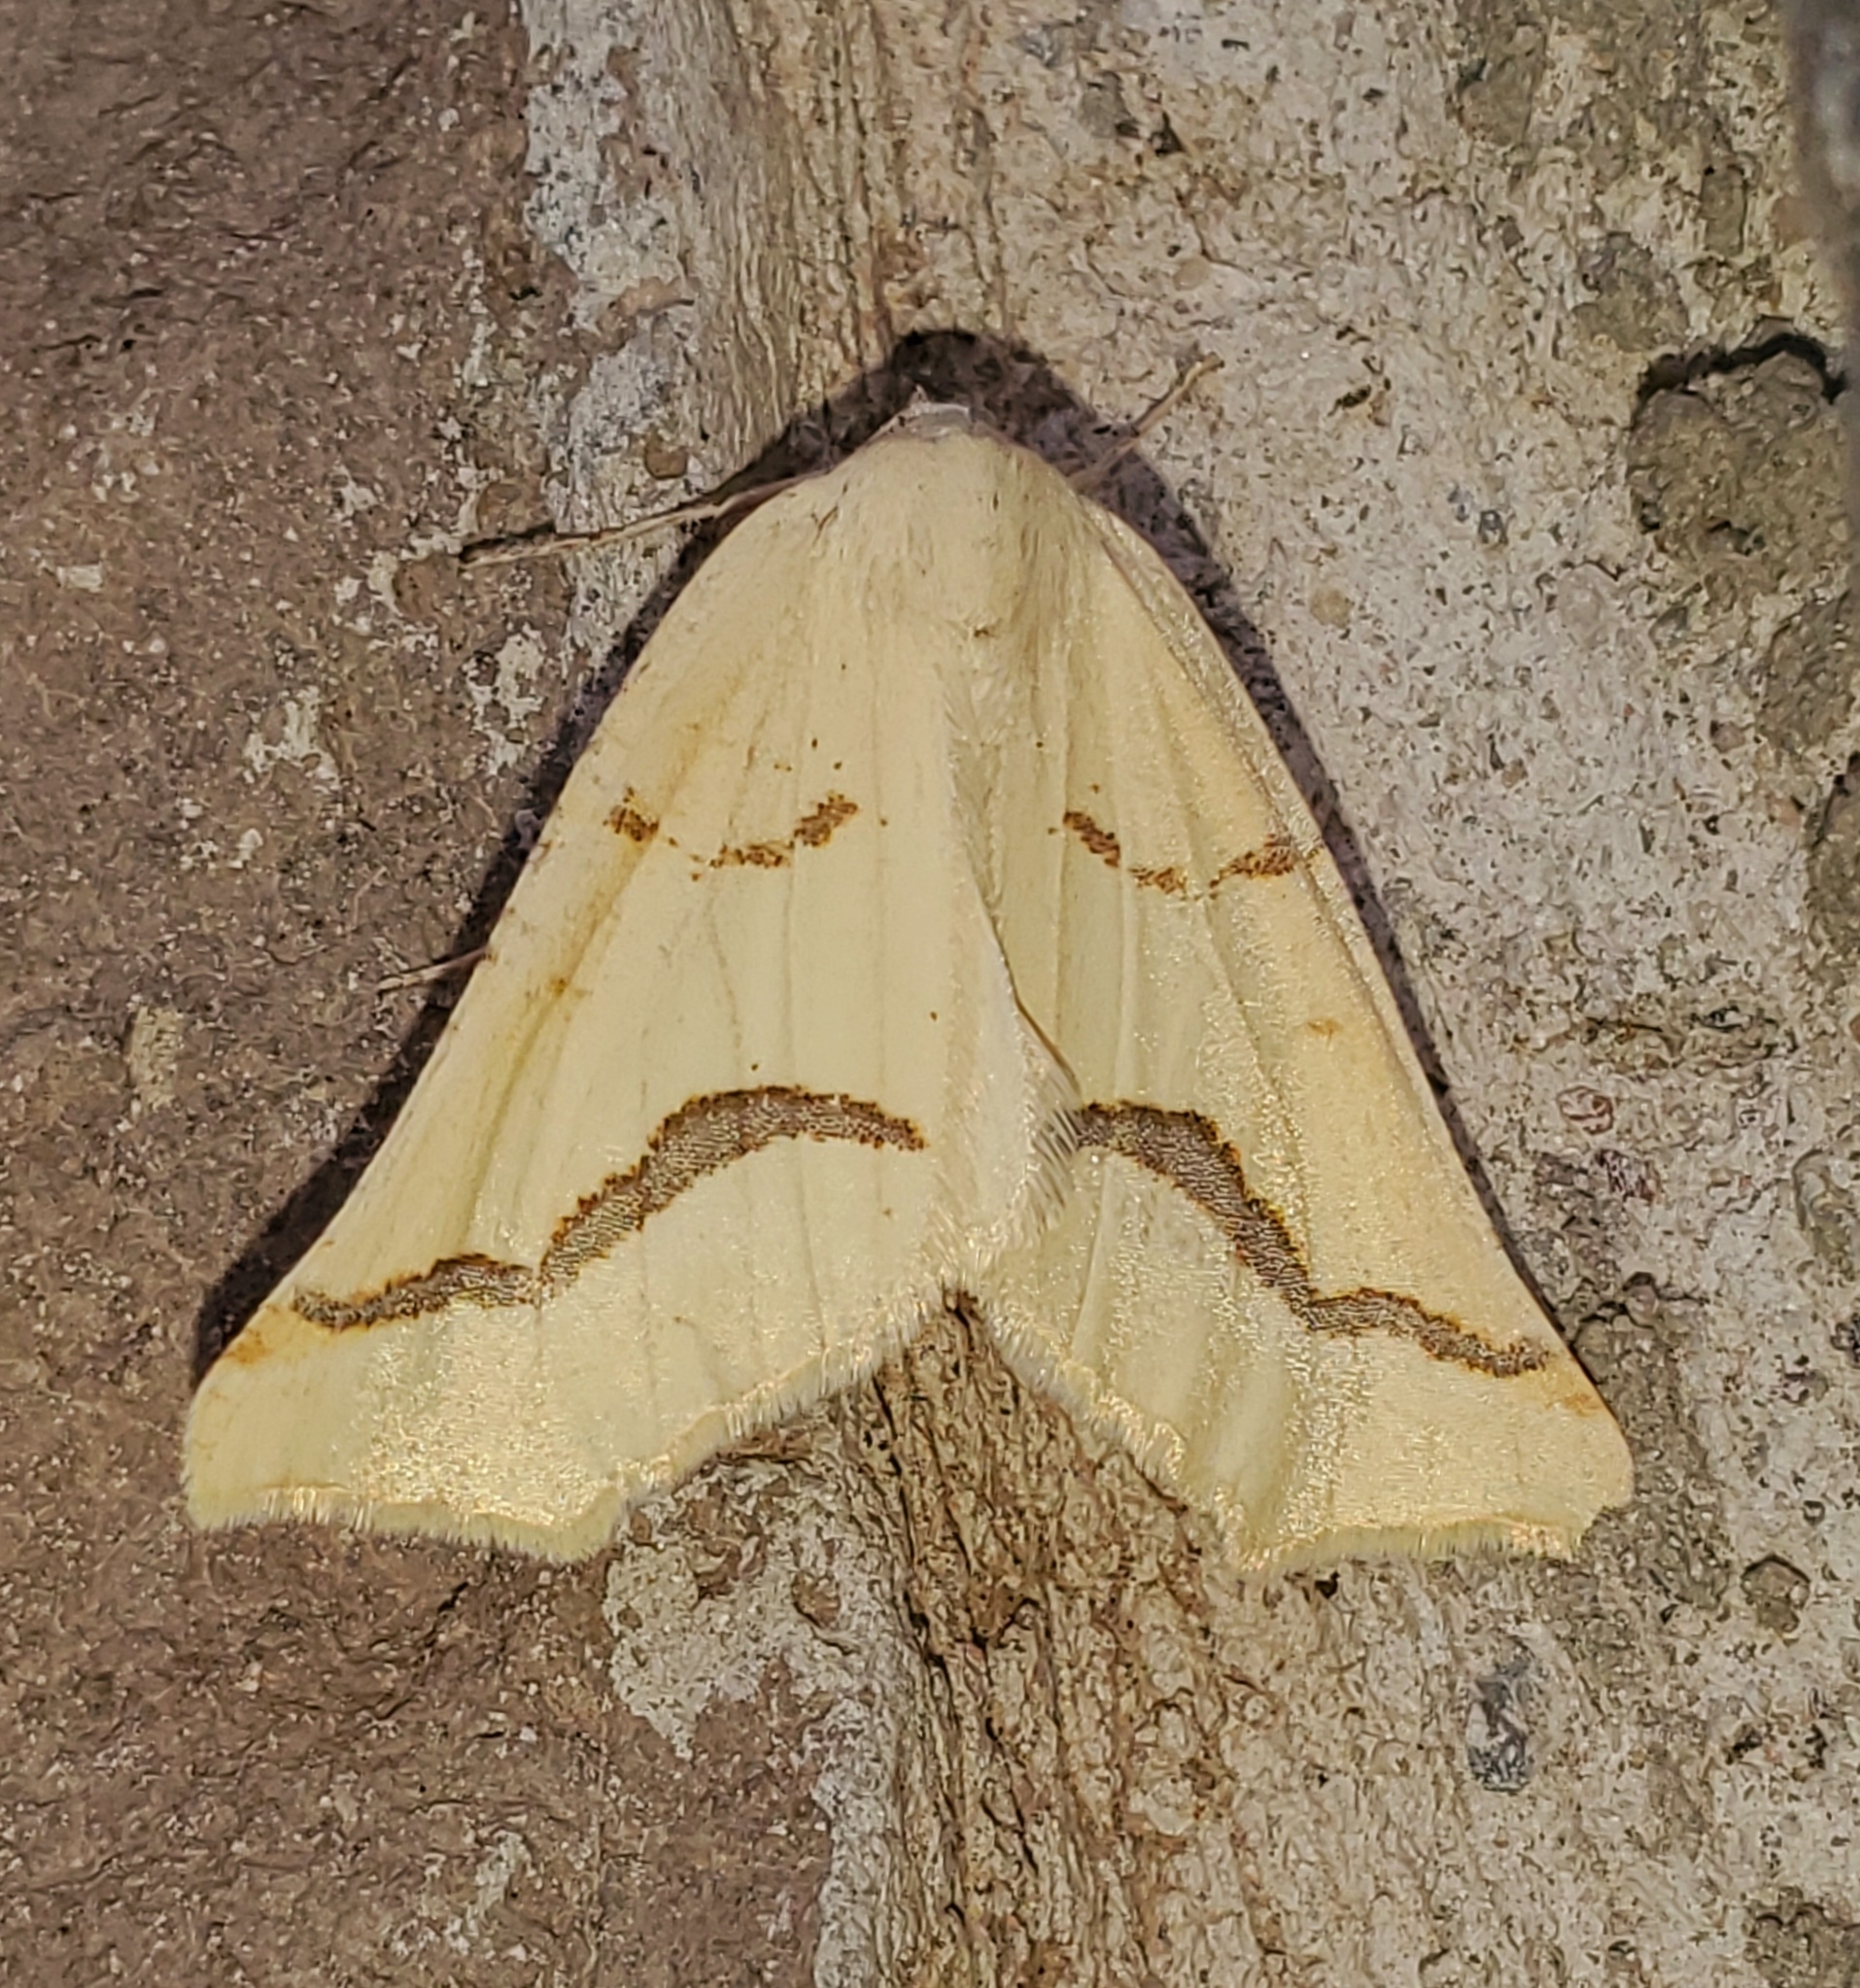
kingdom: Animalia
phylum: Arthropoda
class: Insecta
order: Lepidoptera
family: Geometridae
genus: Eriplatymetra
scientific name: Eriplatymetra coloradaria
